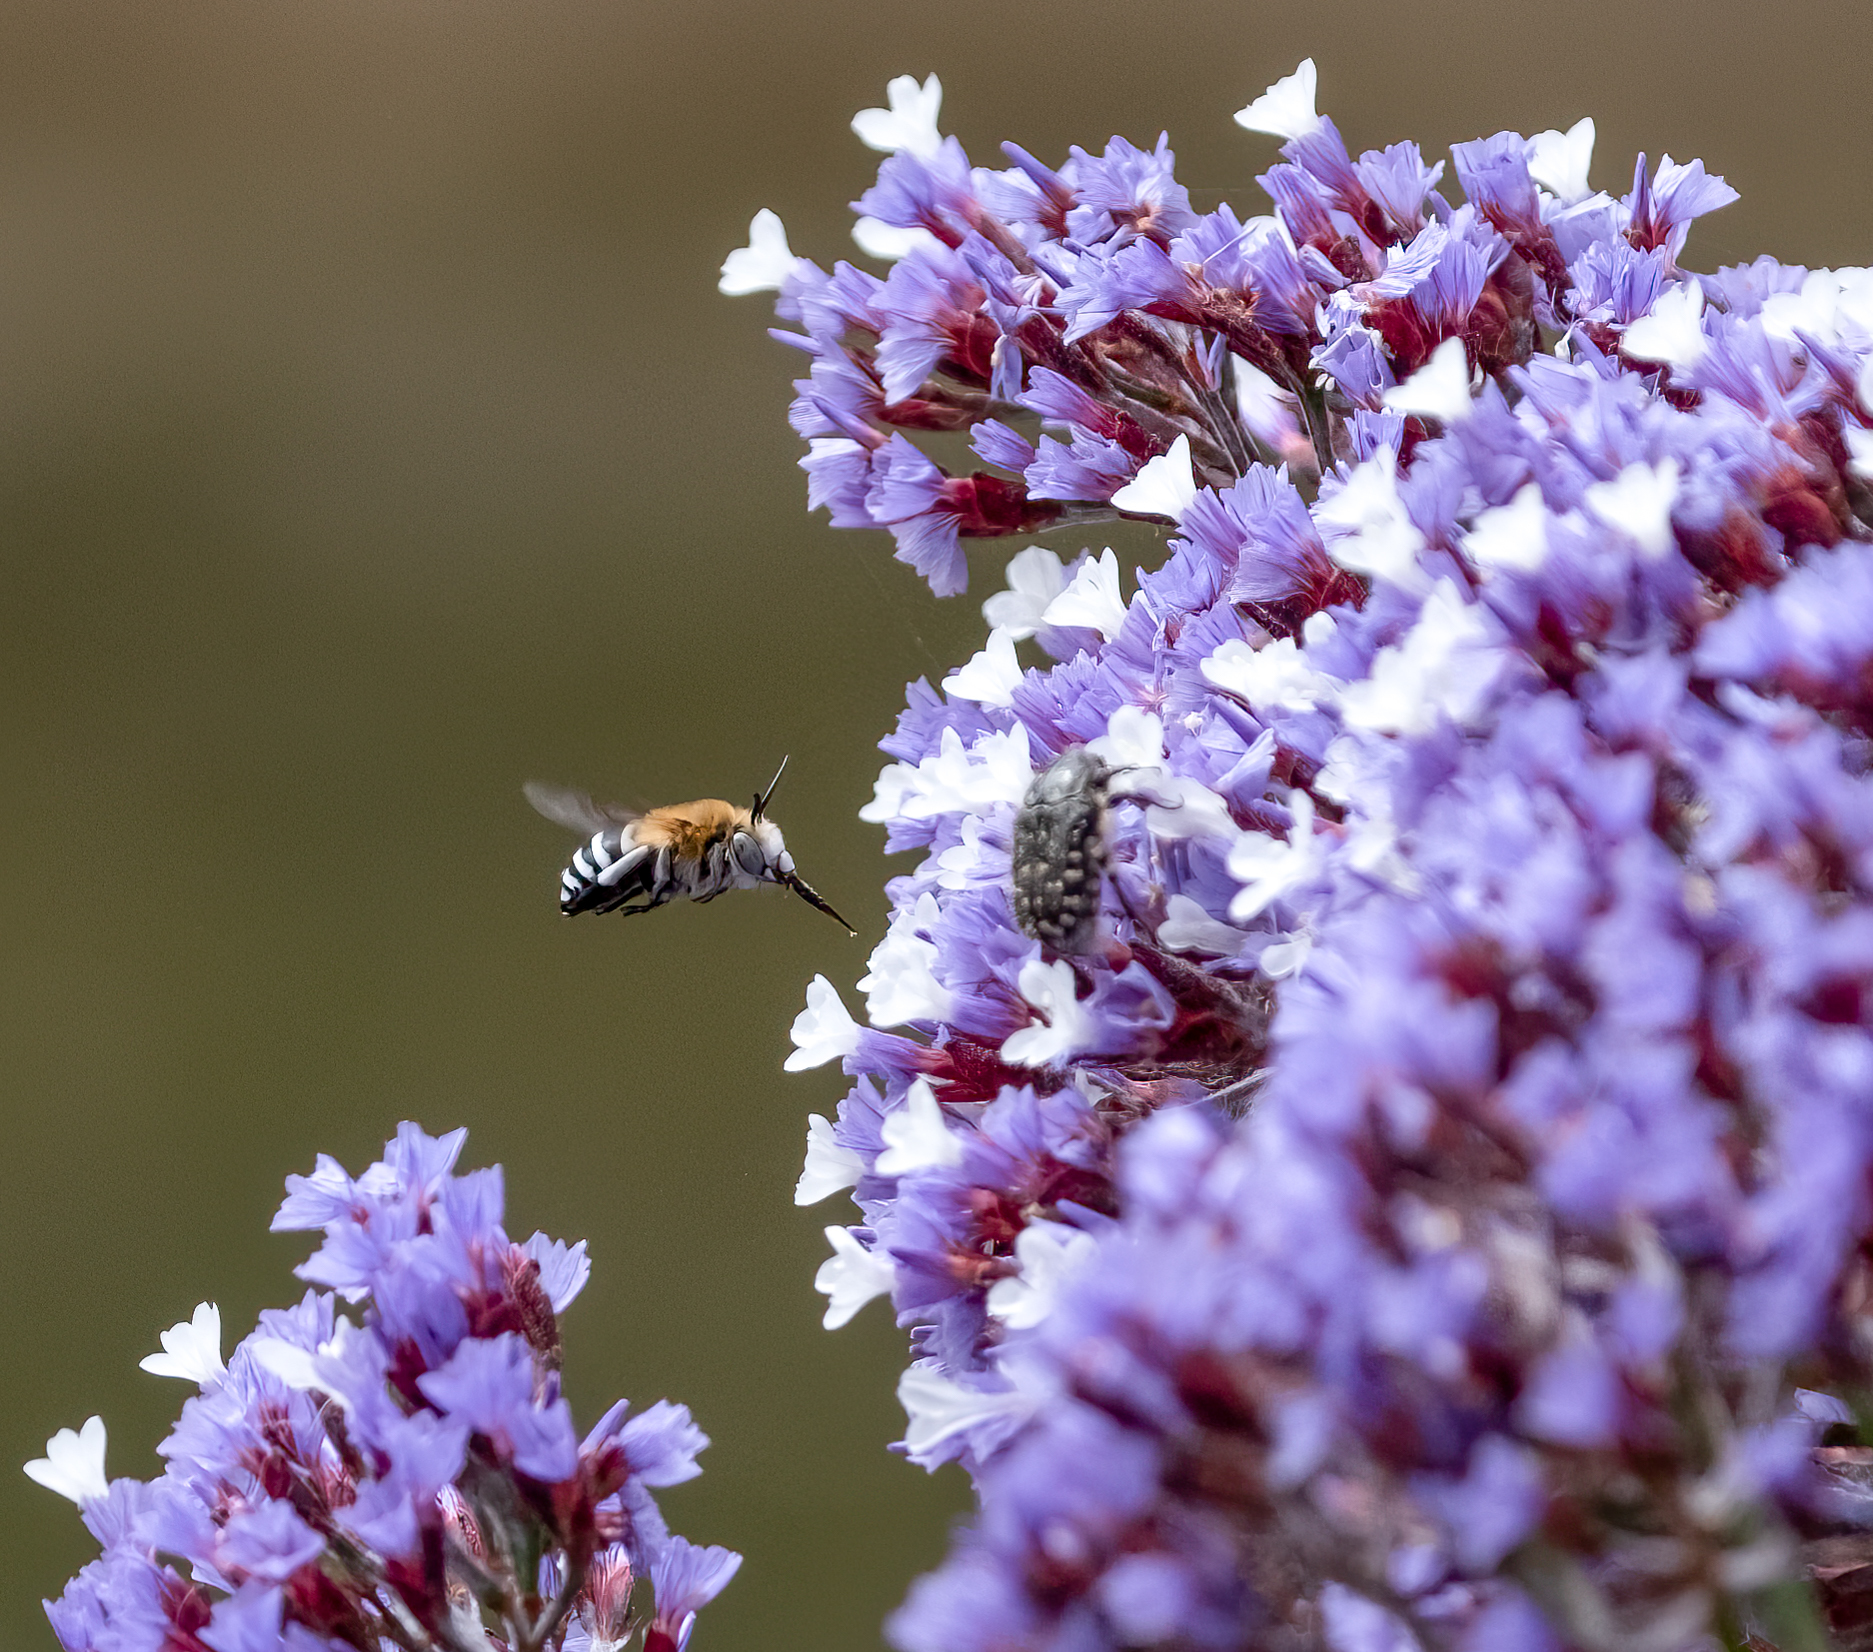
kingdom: Animalia
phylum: Arthropoda
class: Insecta
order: Hymenoptera
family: Apidae
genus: Amegilla
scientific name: Amegilla quadrifasciata
